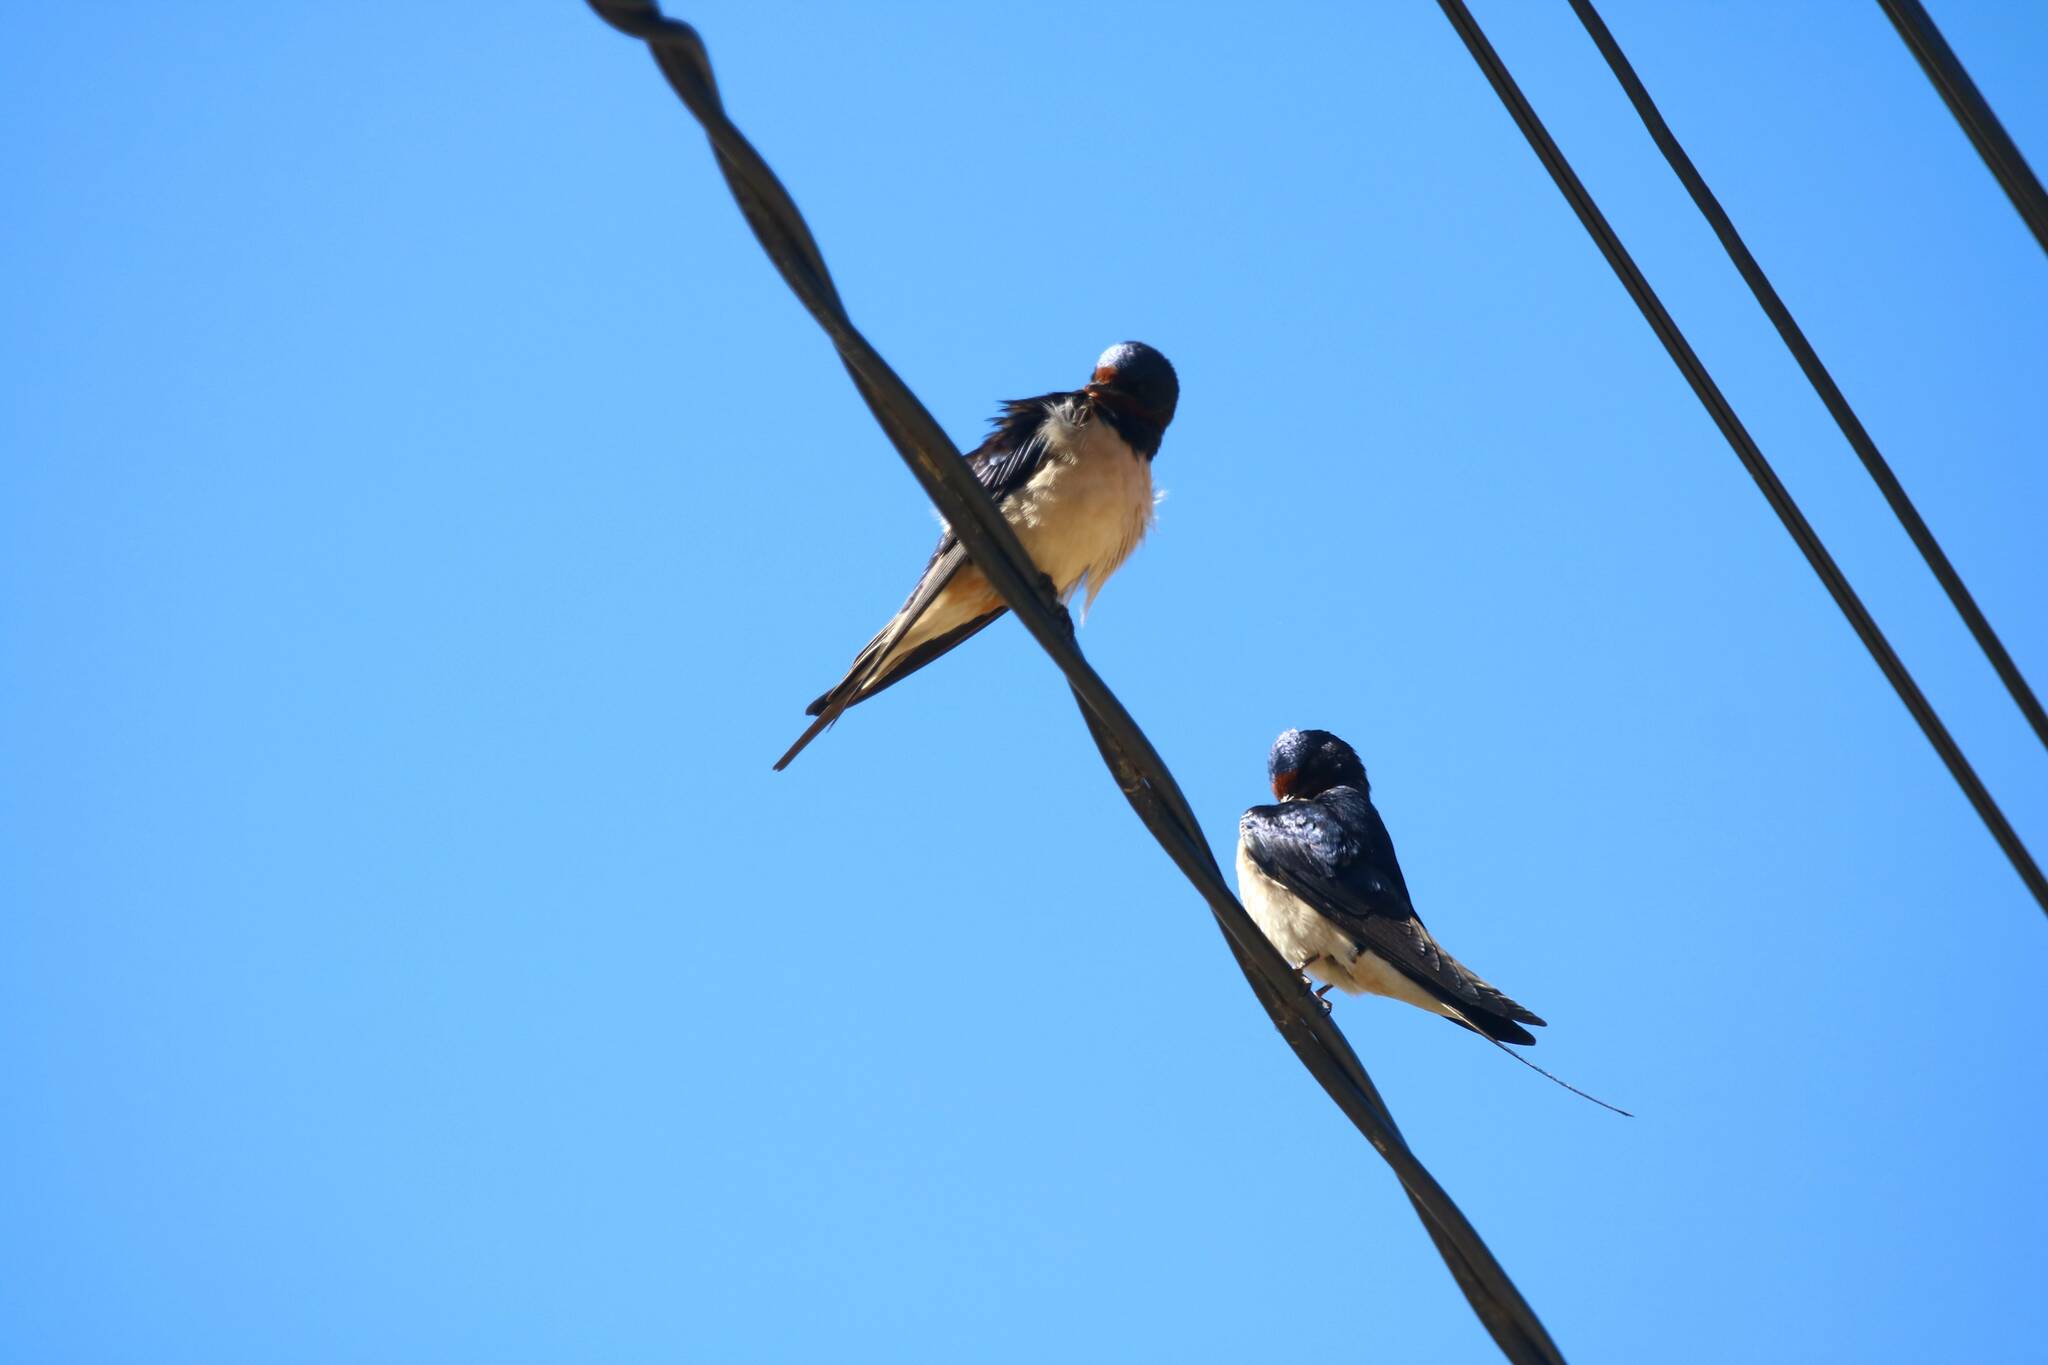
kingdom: Animalia
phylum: Chordata
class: Aves
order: Passeriformes
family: Hirundinidae
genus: Hirundo
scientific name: Hirundo rustica
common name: Barn swallow
